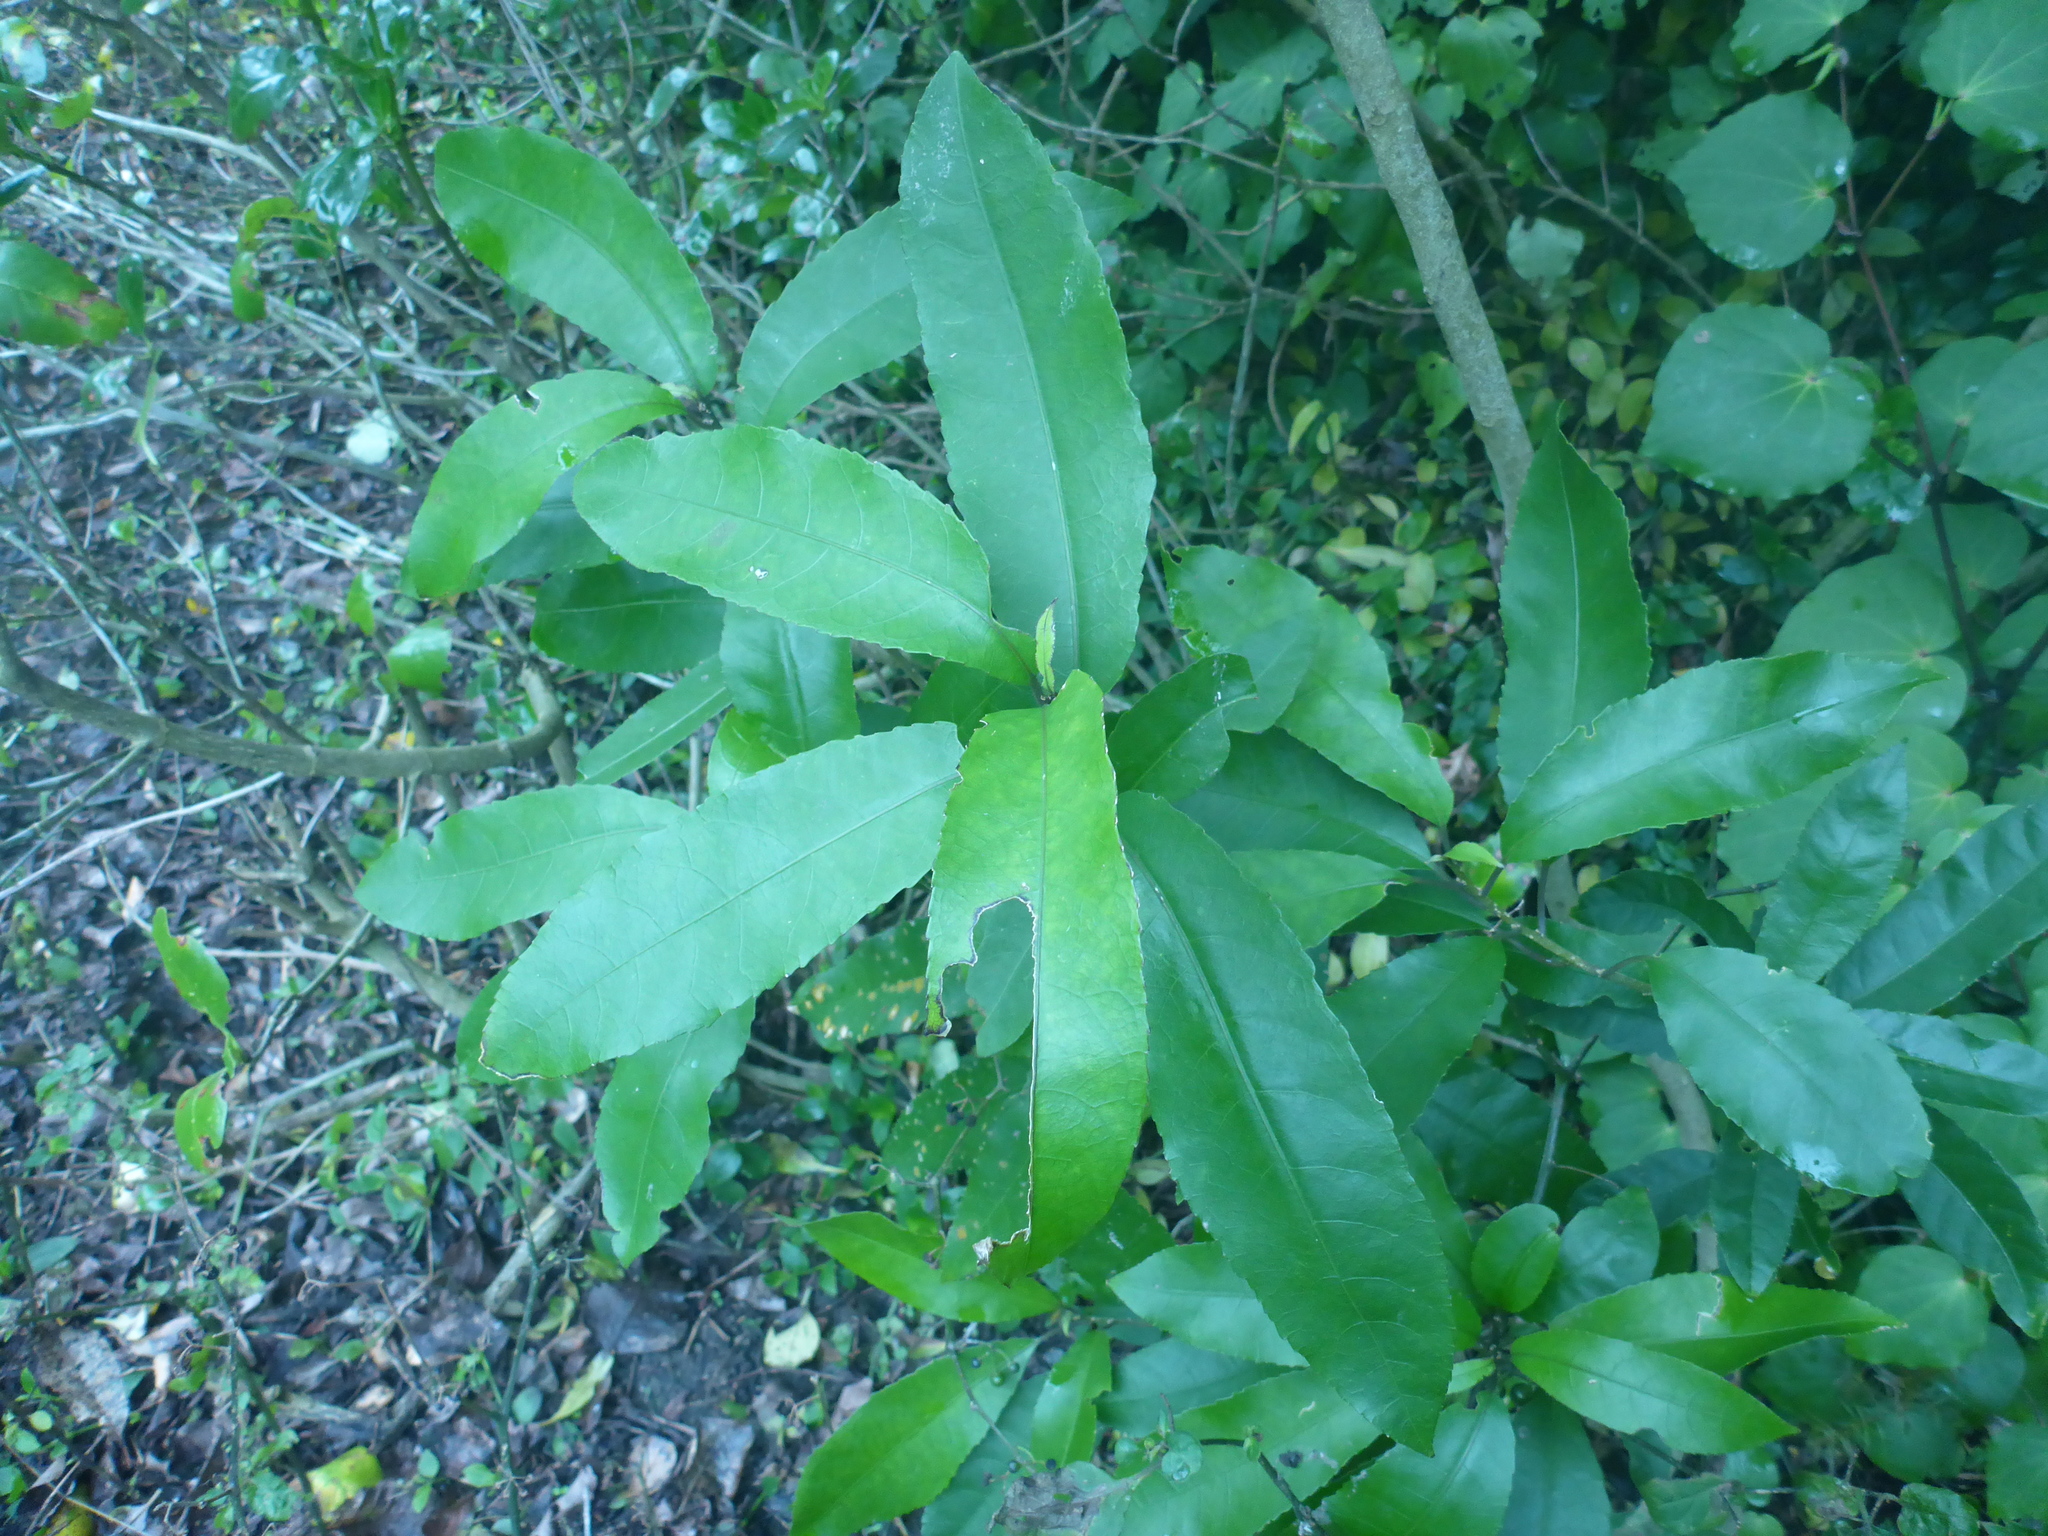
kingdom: Plantae
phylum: Tracheophyta
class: Magnoliopsida
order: Malpighiales
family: Violaceae
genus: Melicytus
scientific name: Melicytus ramiflorus
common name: Mahoe
